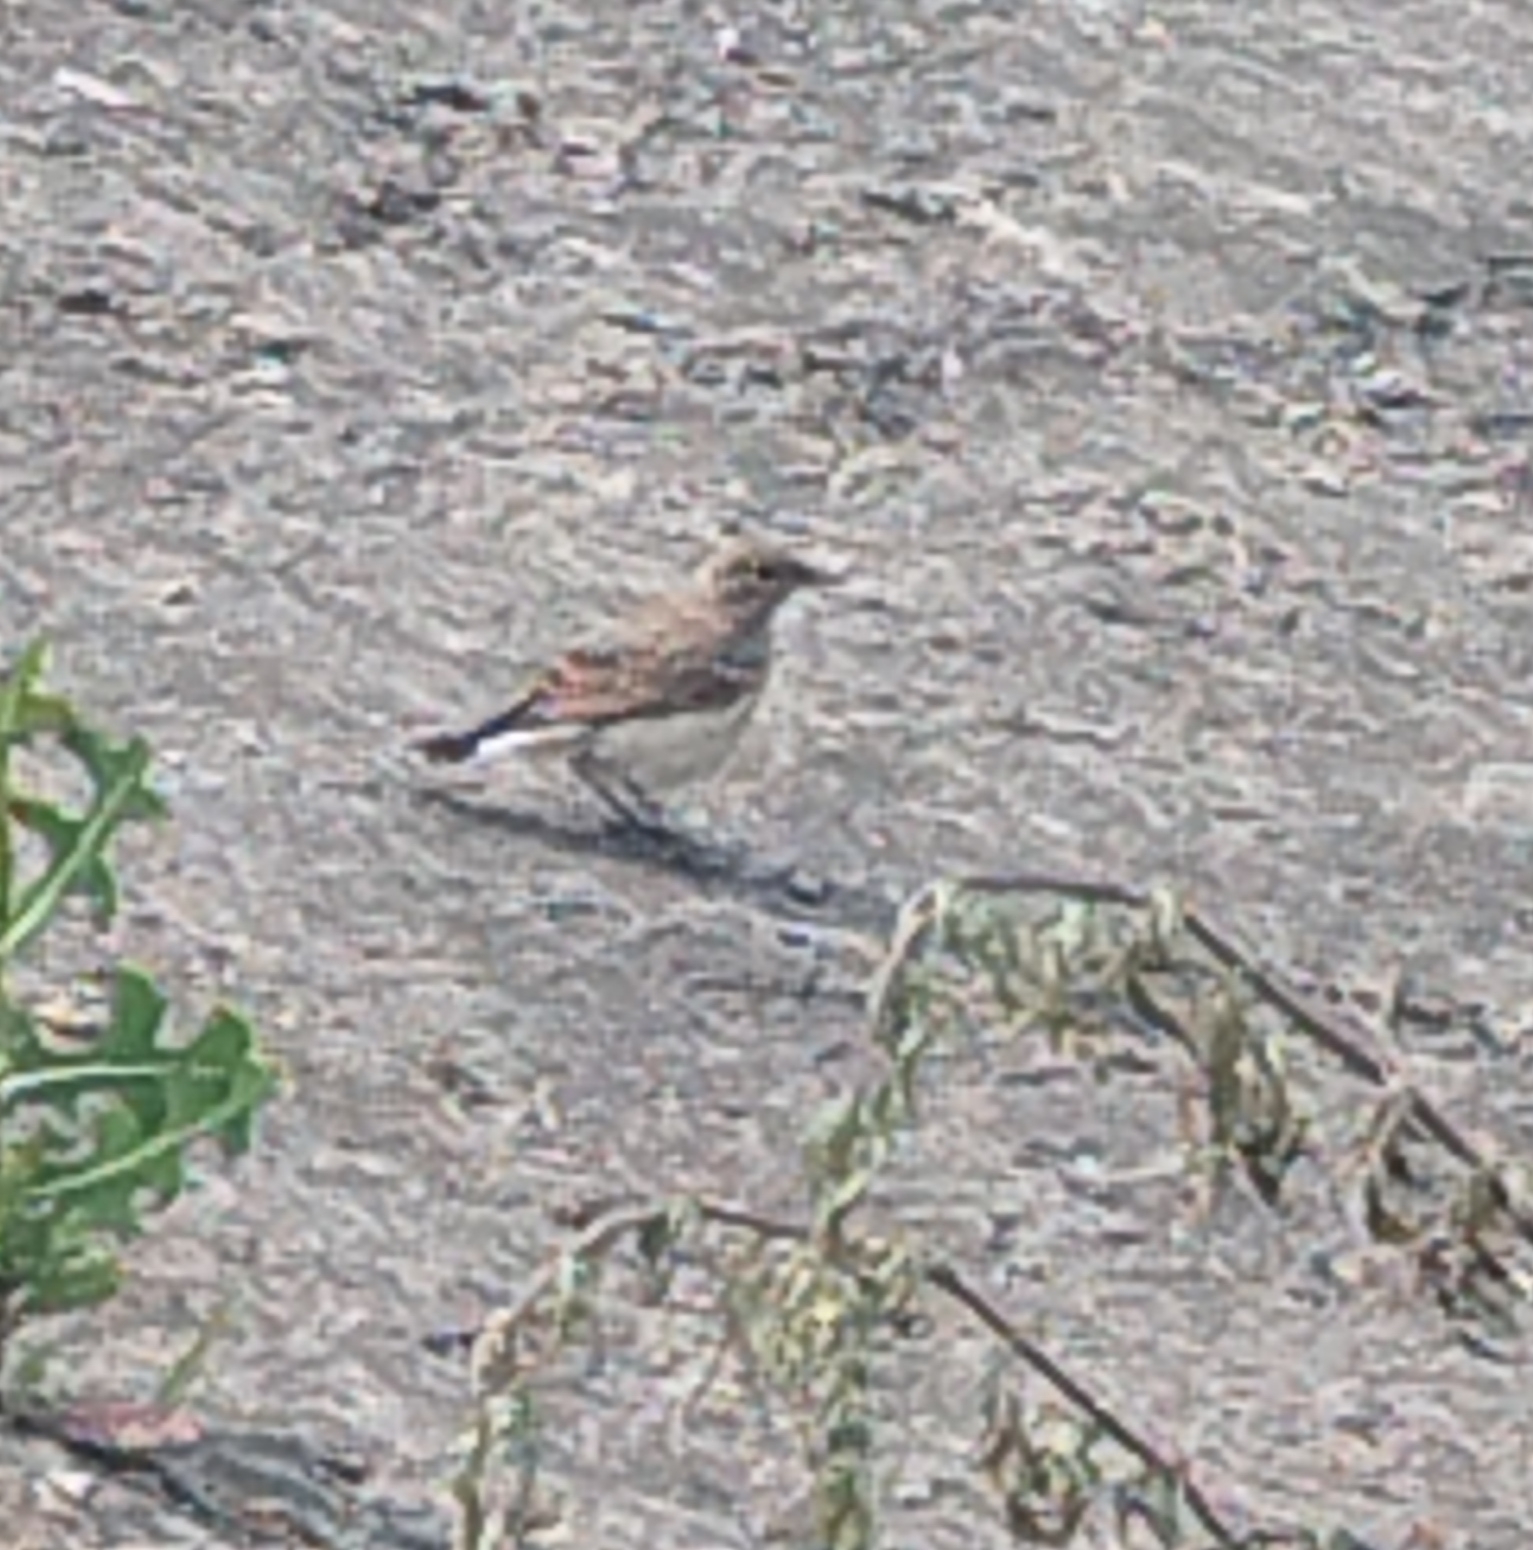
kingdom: Animalia
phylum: Chordata
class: Aves
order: Passeriformes
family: Muscicapidae
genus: Oenanthe
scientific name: Oenanthe oenanthe
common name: Northern wheatear
